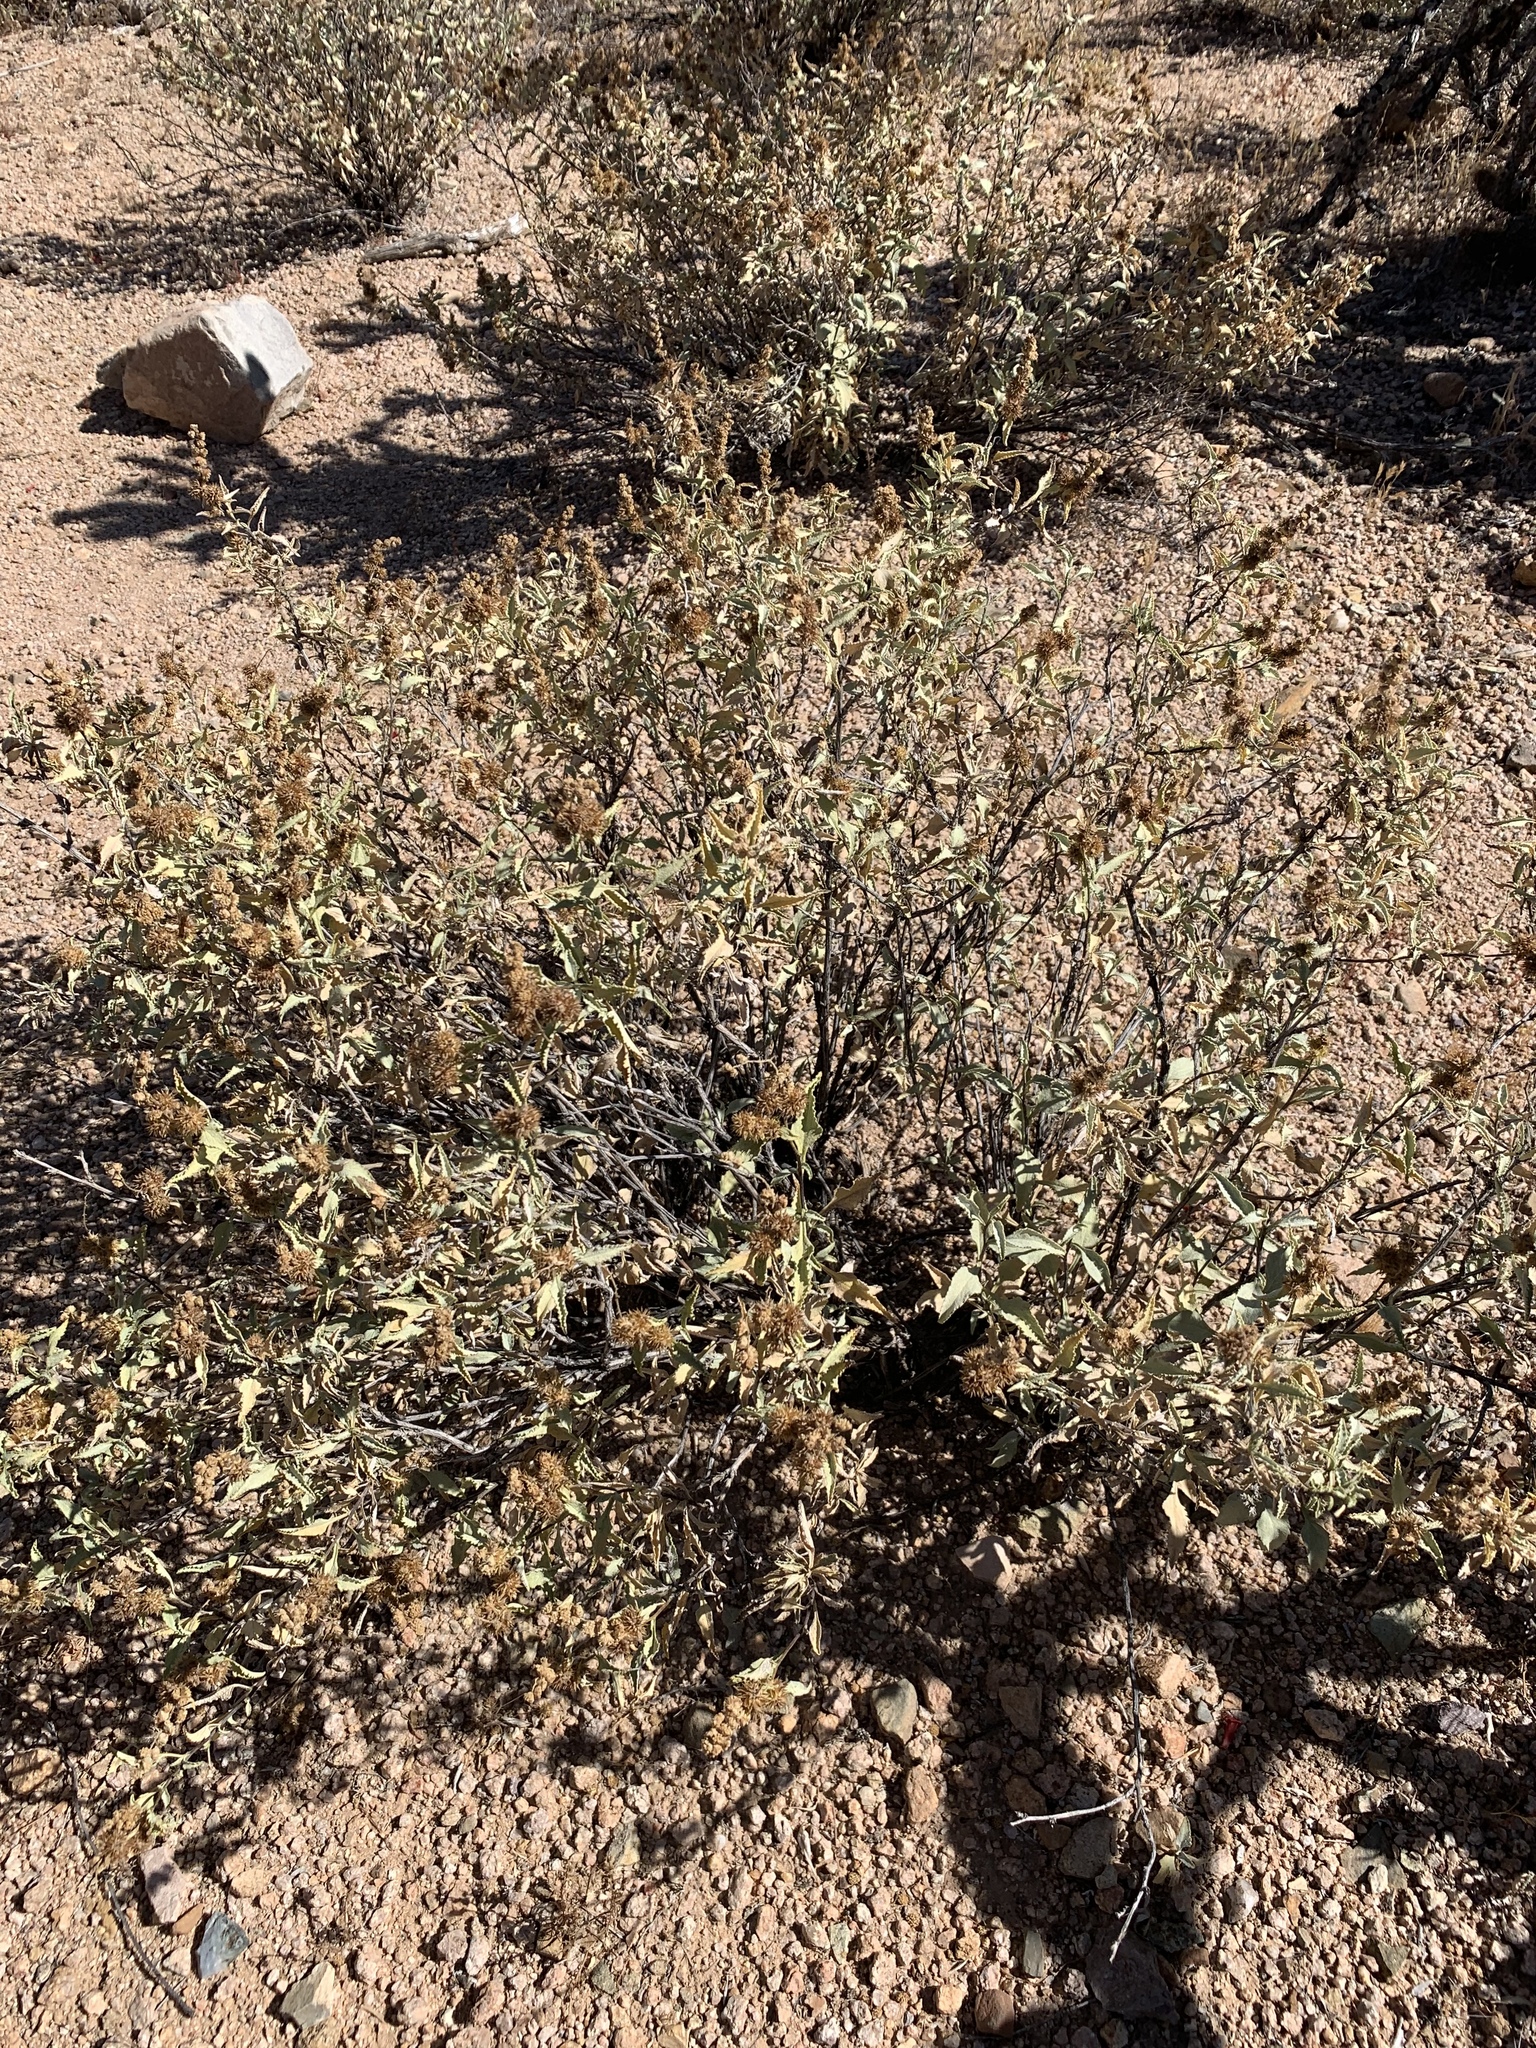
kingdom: Plantae
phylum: Tracheophyta
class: Magnoliopsida
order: Asterales
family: Asteraceae
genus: Ambrosia
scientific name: Ambrosia deltoidea
